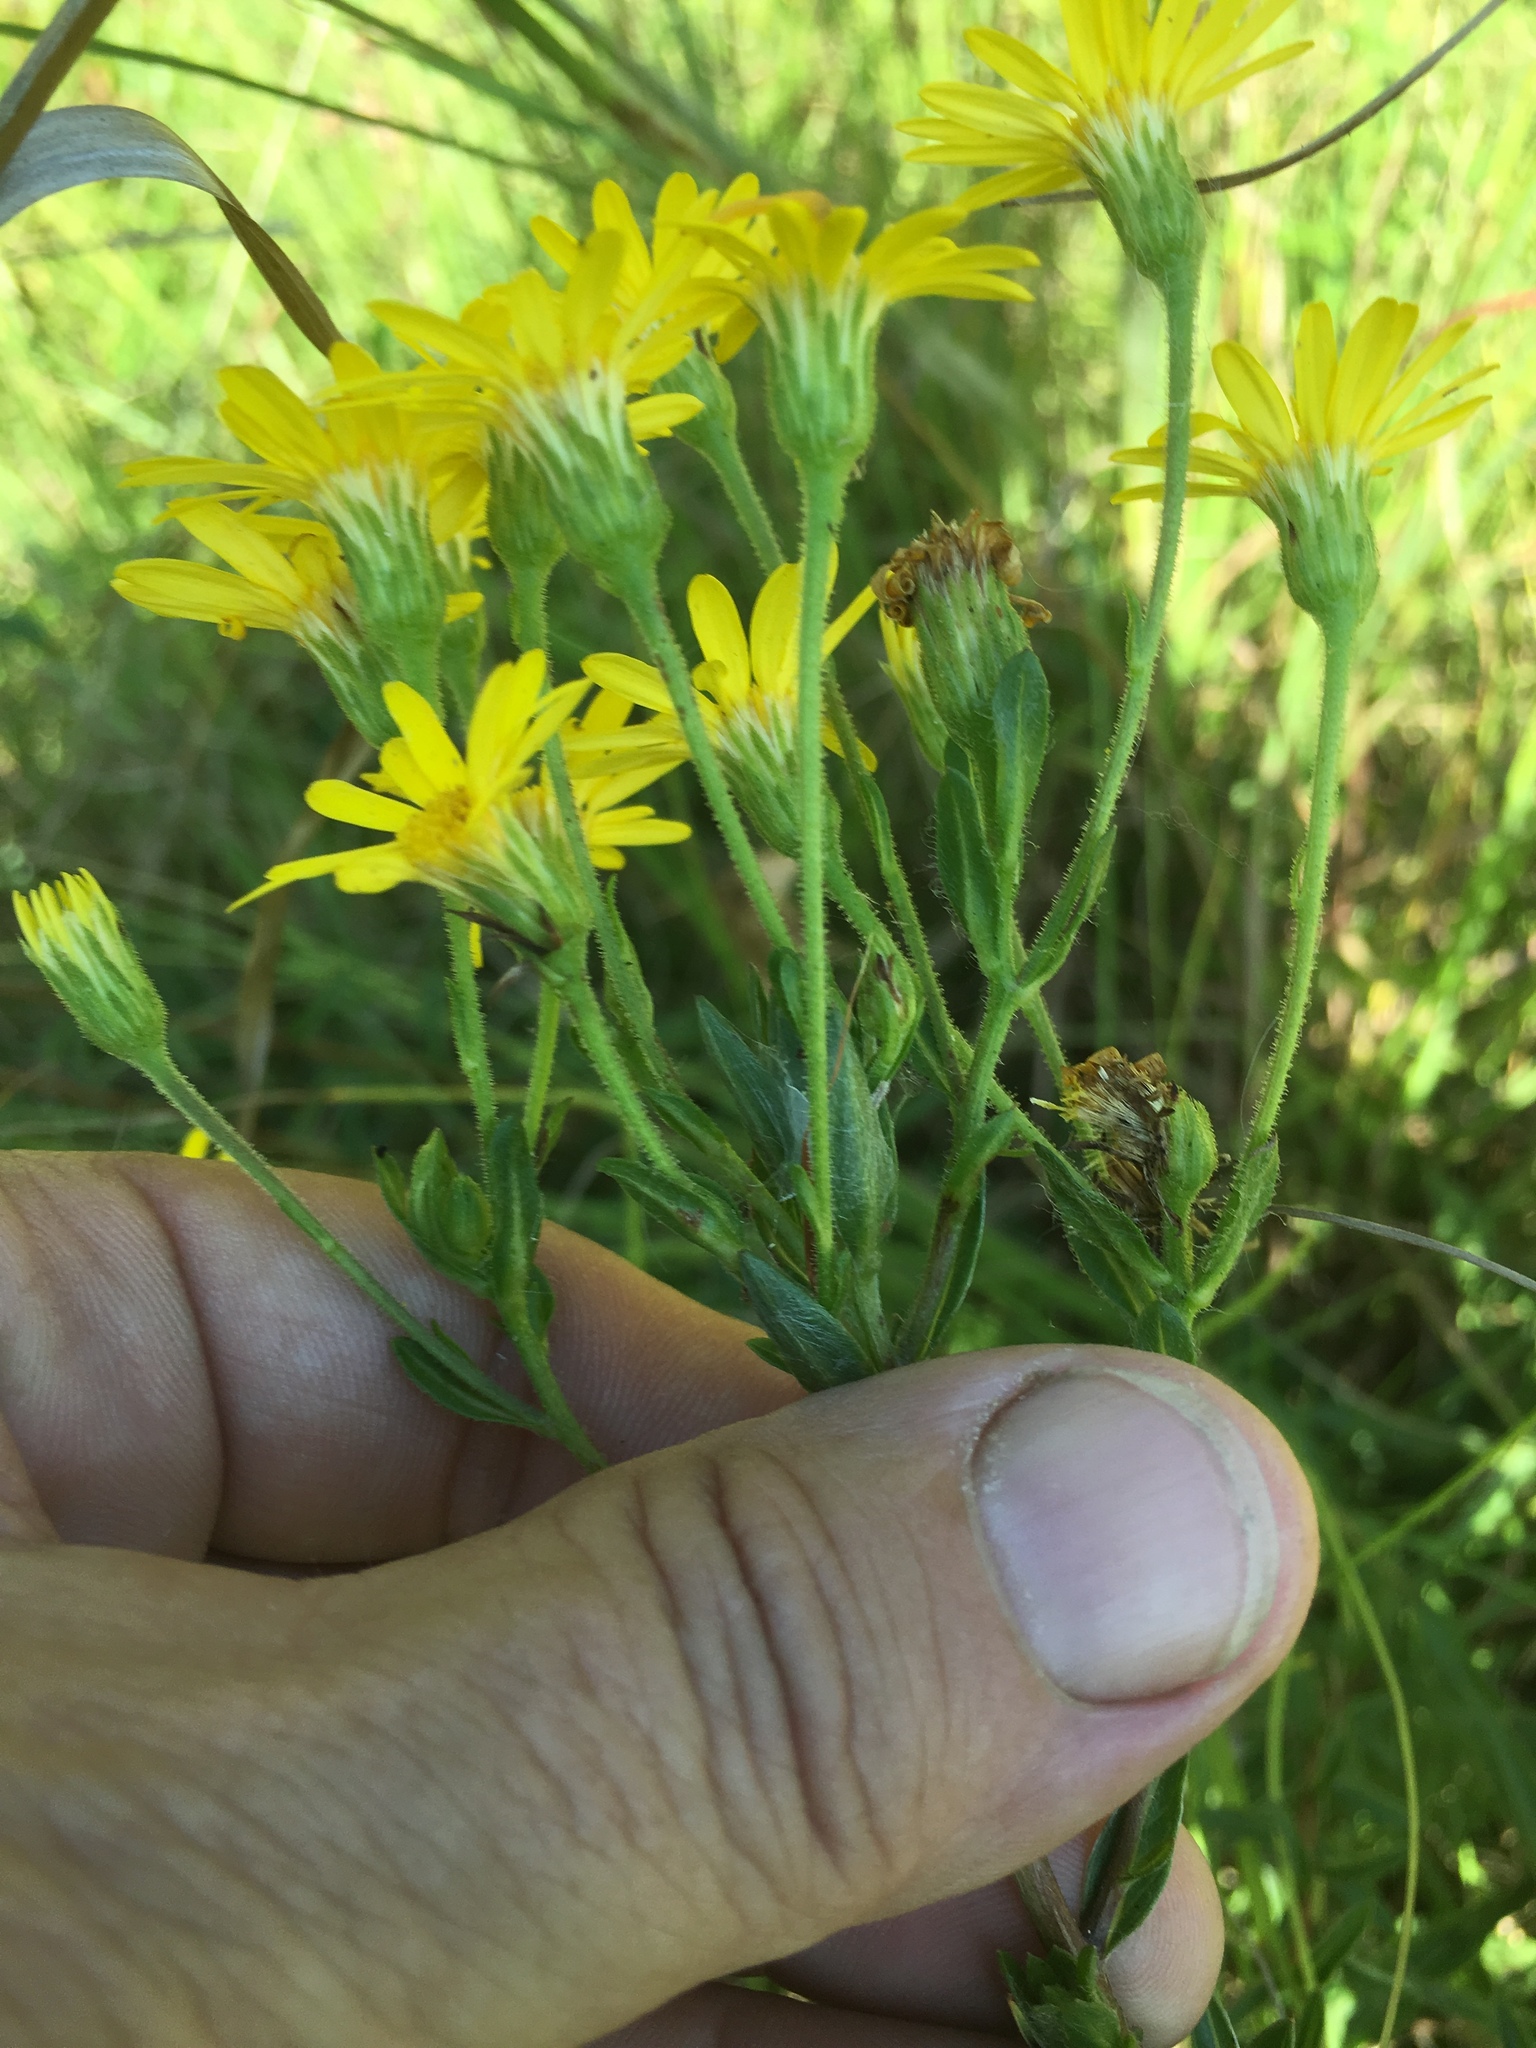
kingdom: Plantae
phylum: Tracheophyta
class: Magnoliopsida
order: Asterales
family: Asteraceae
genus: Chrysopsis
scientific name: Chrysopsis mariana
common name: Maryland golden-aster
